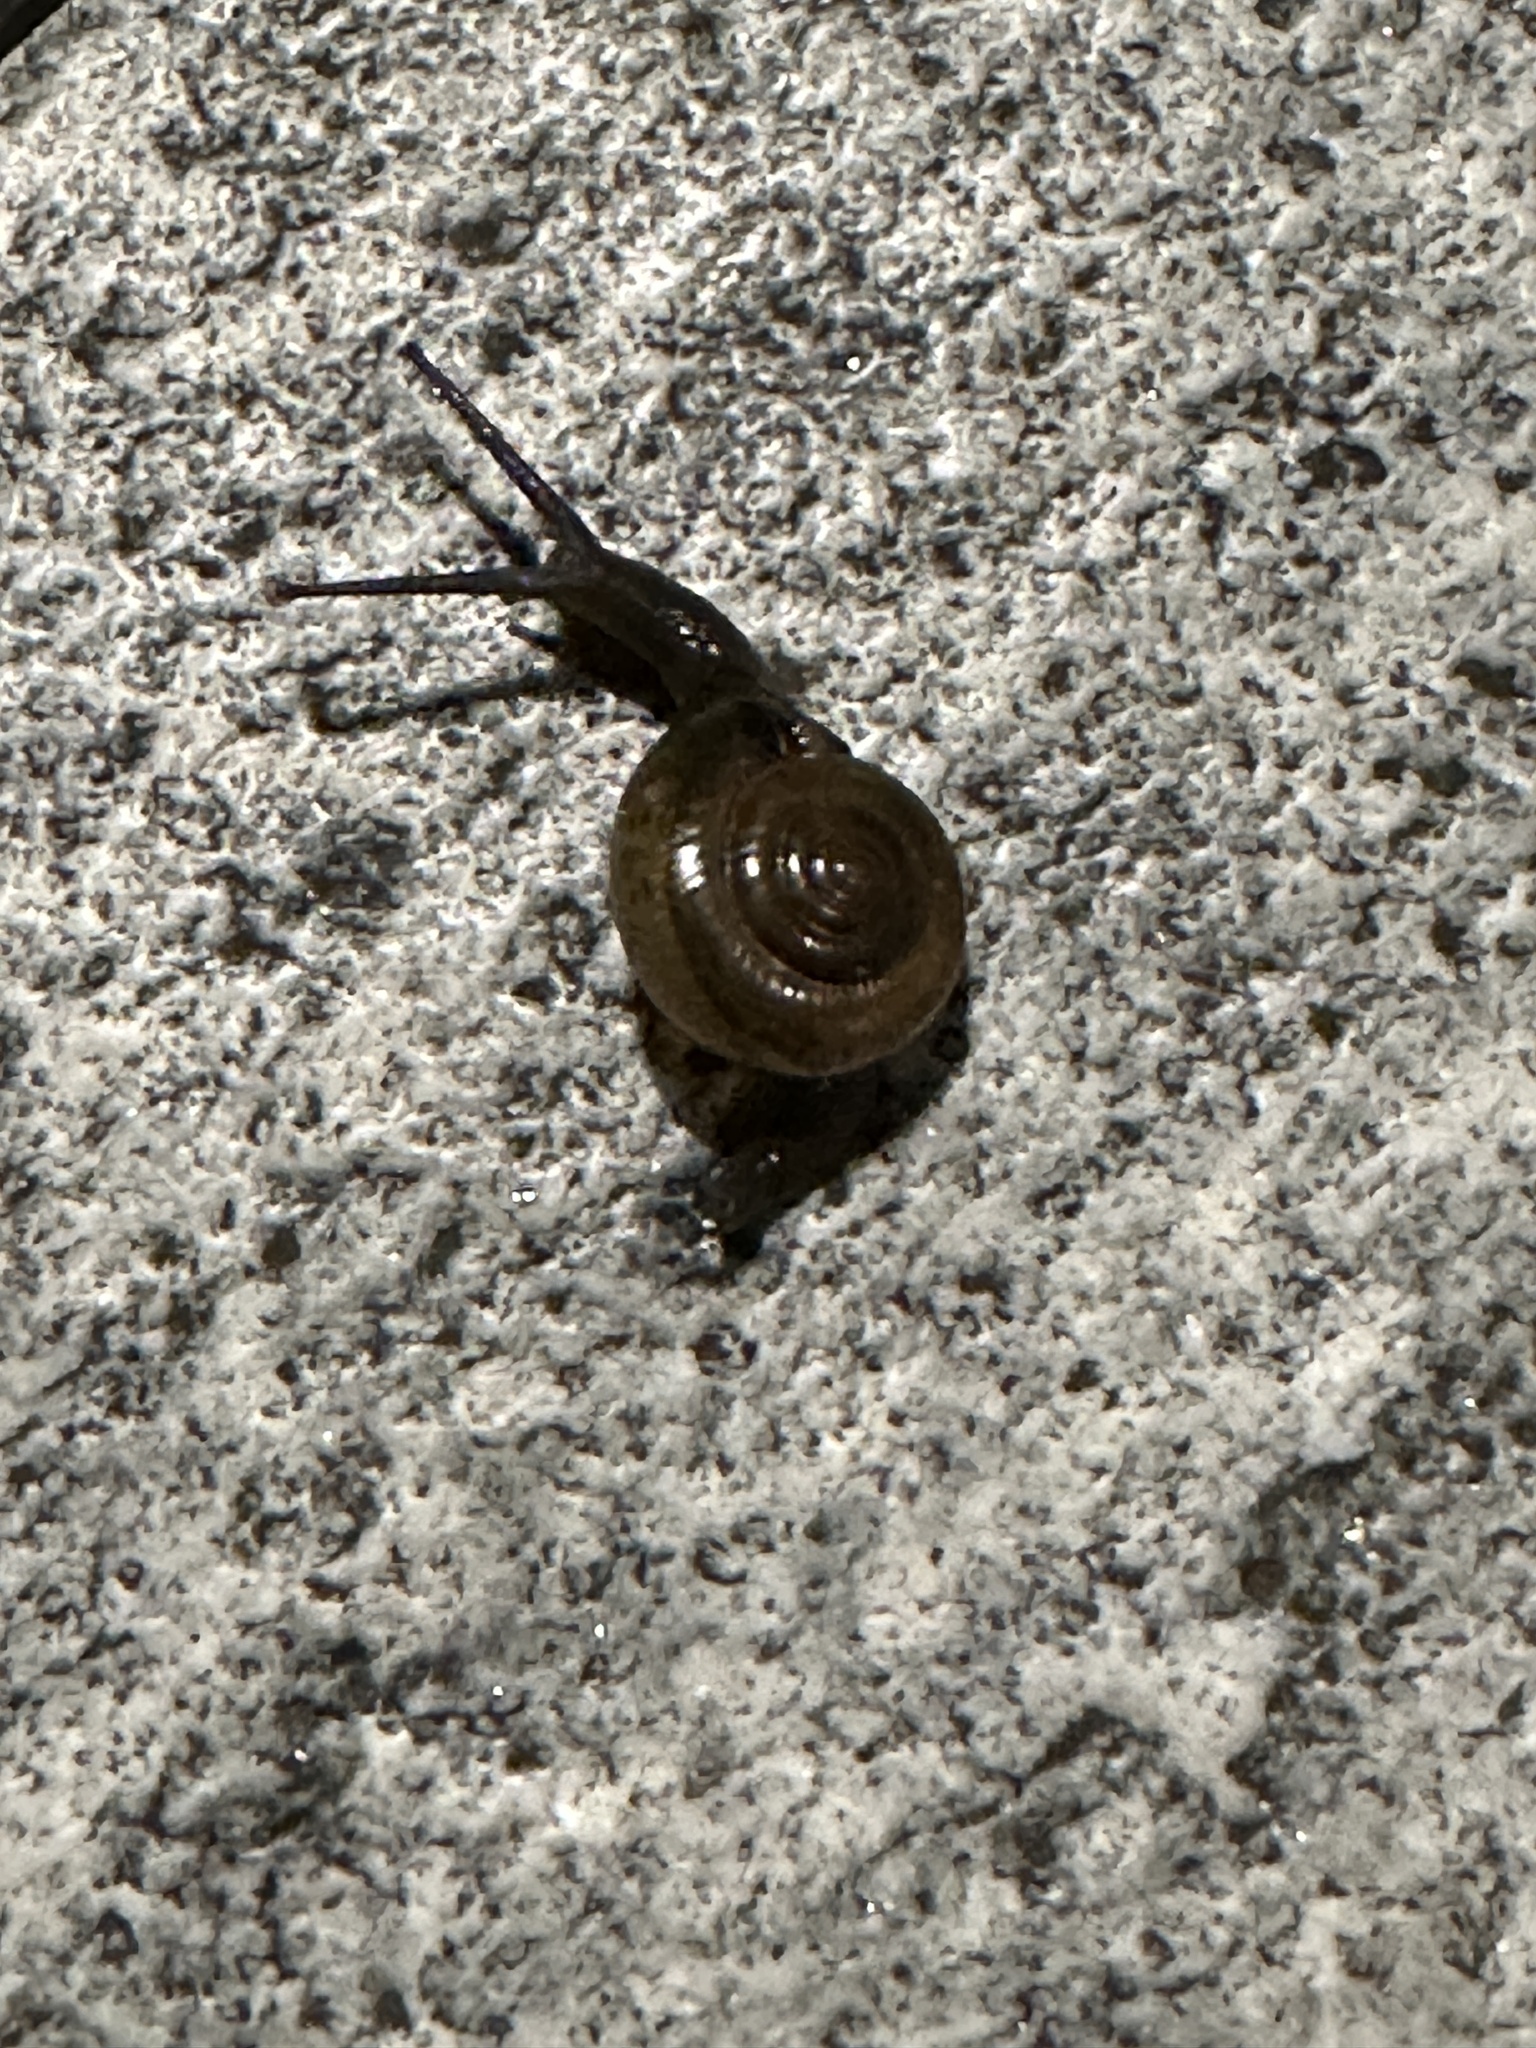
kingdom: Animalia
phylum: Mollusca
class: Gastropoda
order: Stylommatophora
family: Ariophantidae
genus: Macrochlamys
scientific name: Macrochlamys hippocastaneum
